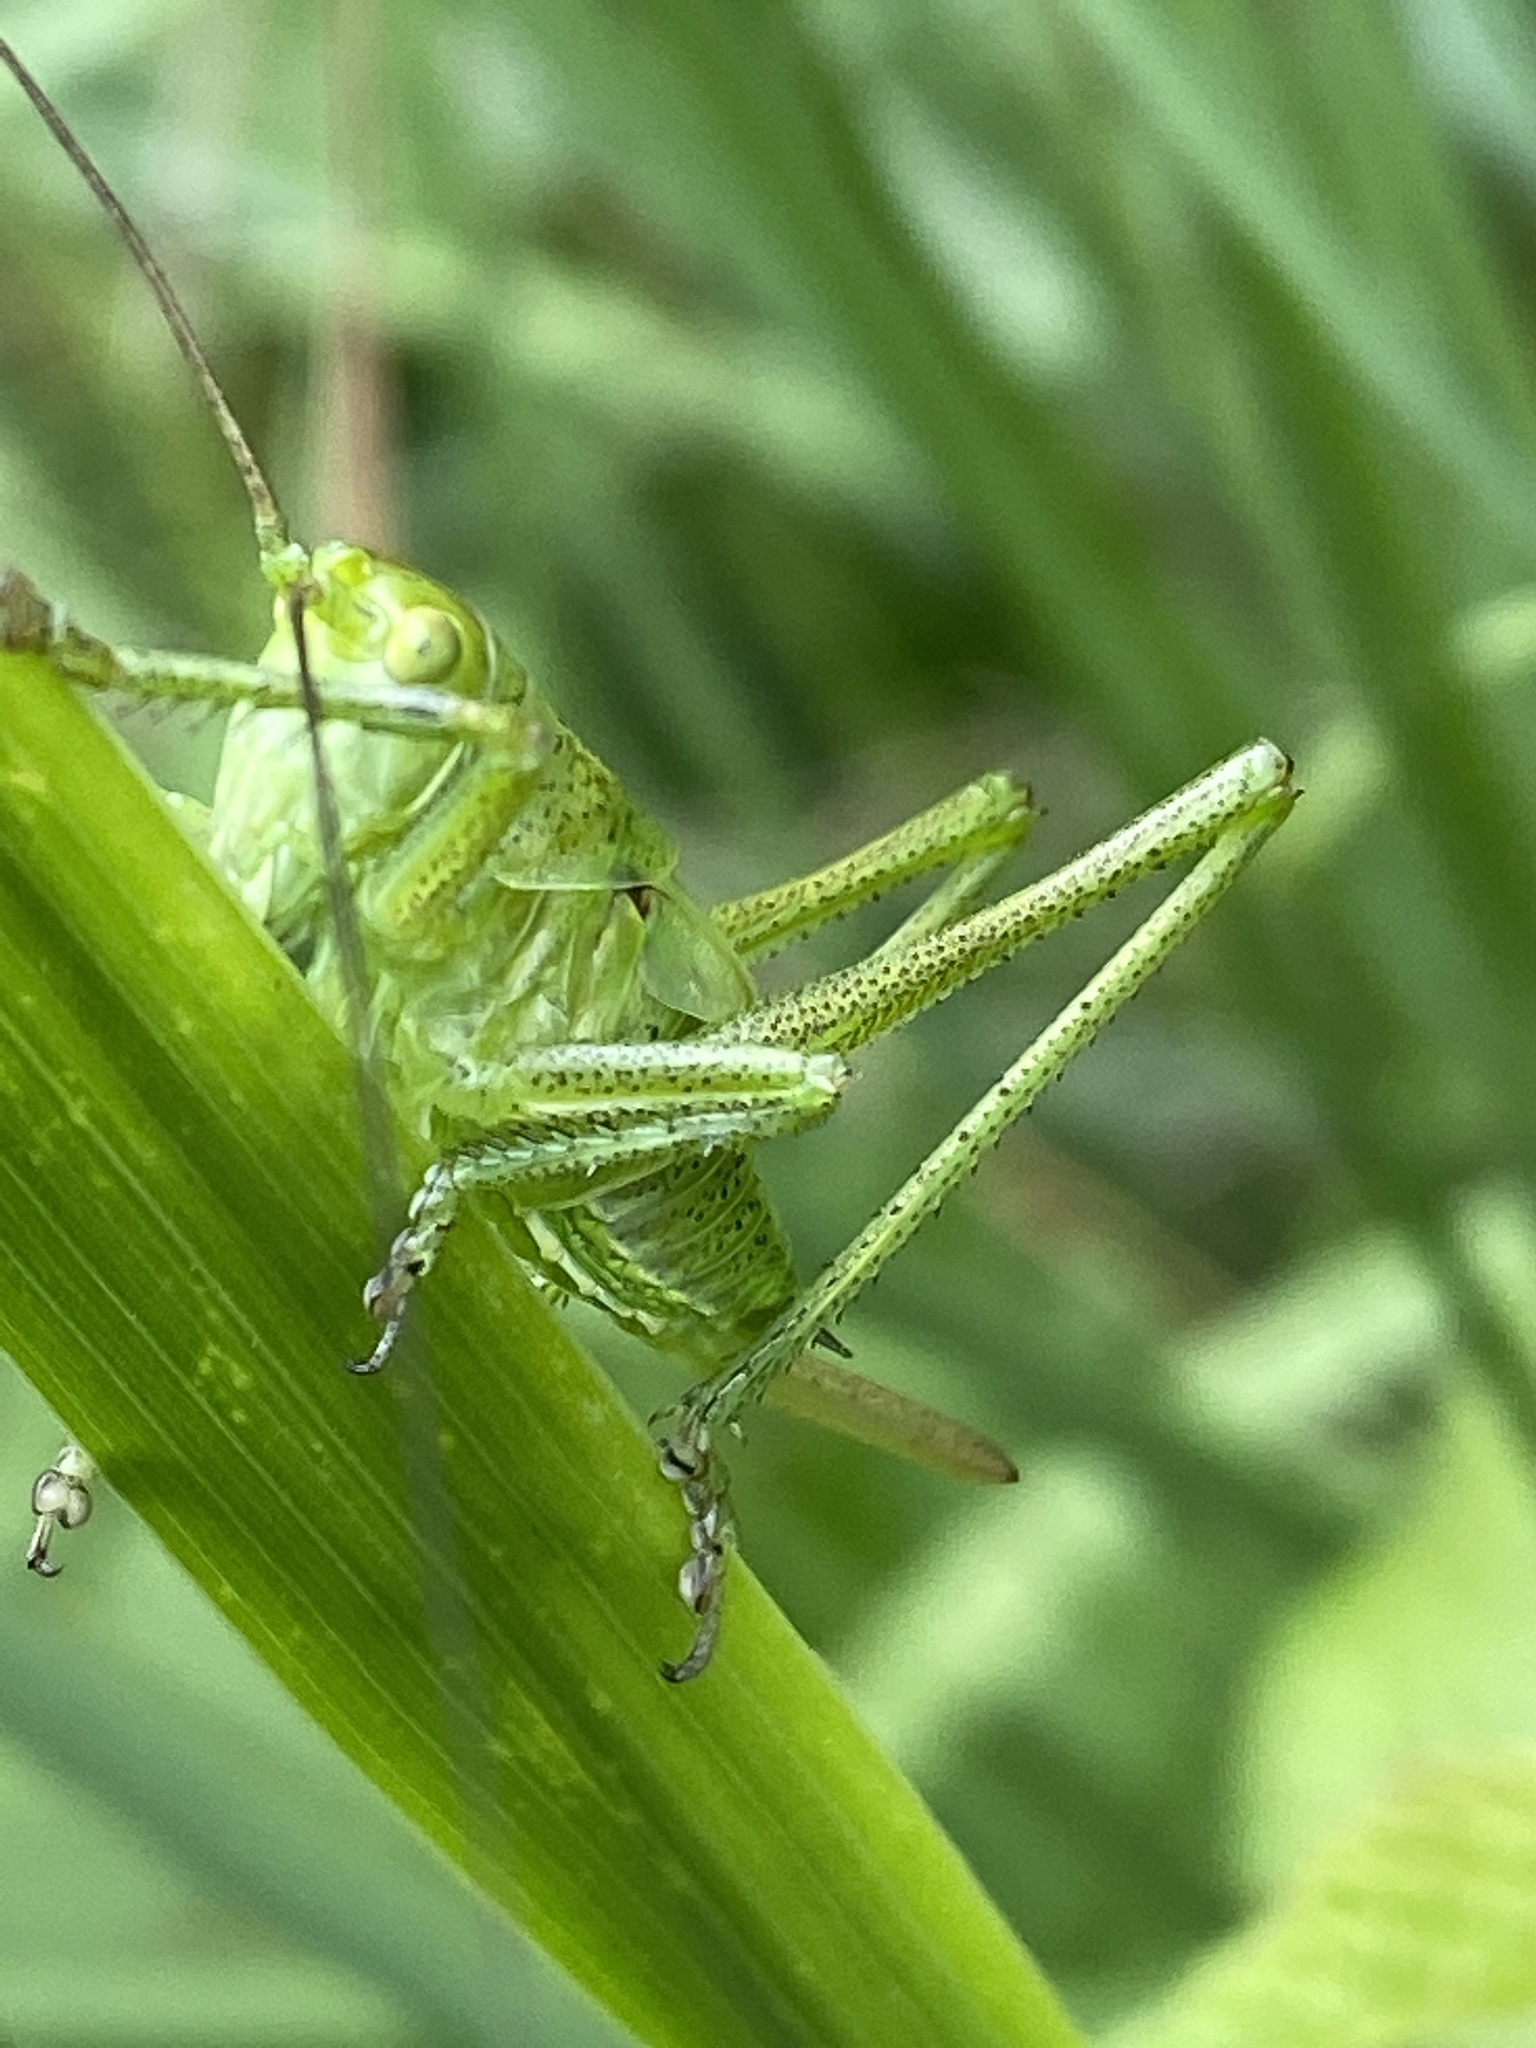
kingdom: Animalia
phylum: Arthropoda
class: Insecta
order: Orthoptera
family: Tettigoniidae
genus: Tettigonia
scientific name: Tettigonia viridissima
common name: Great green bush-cricket
